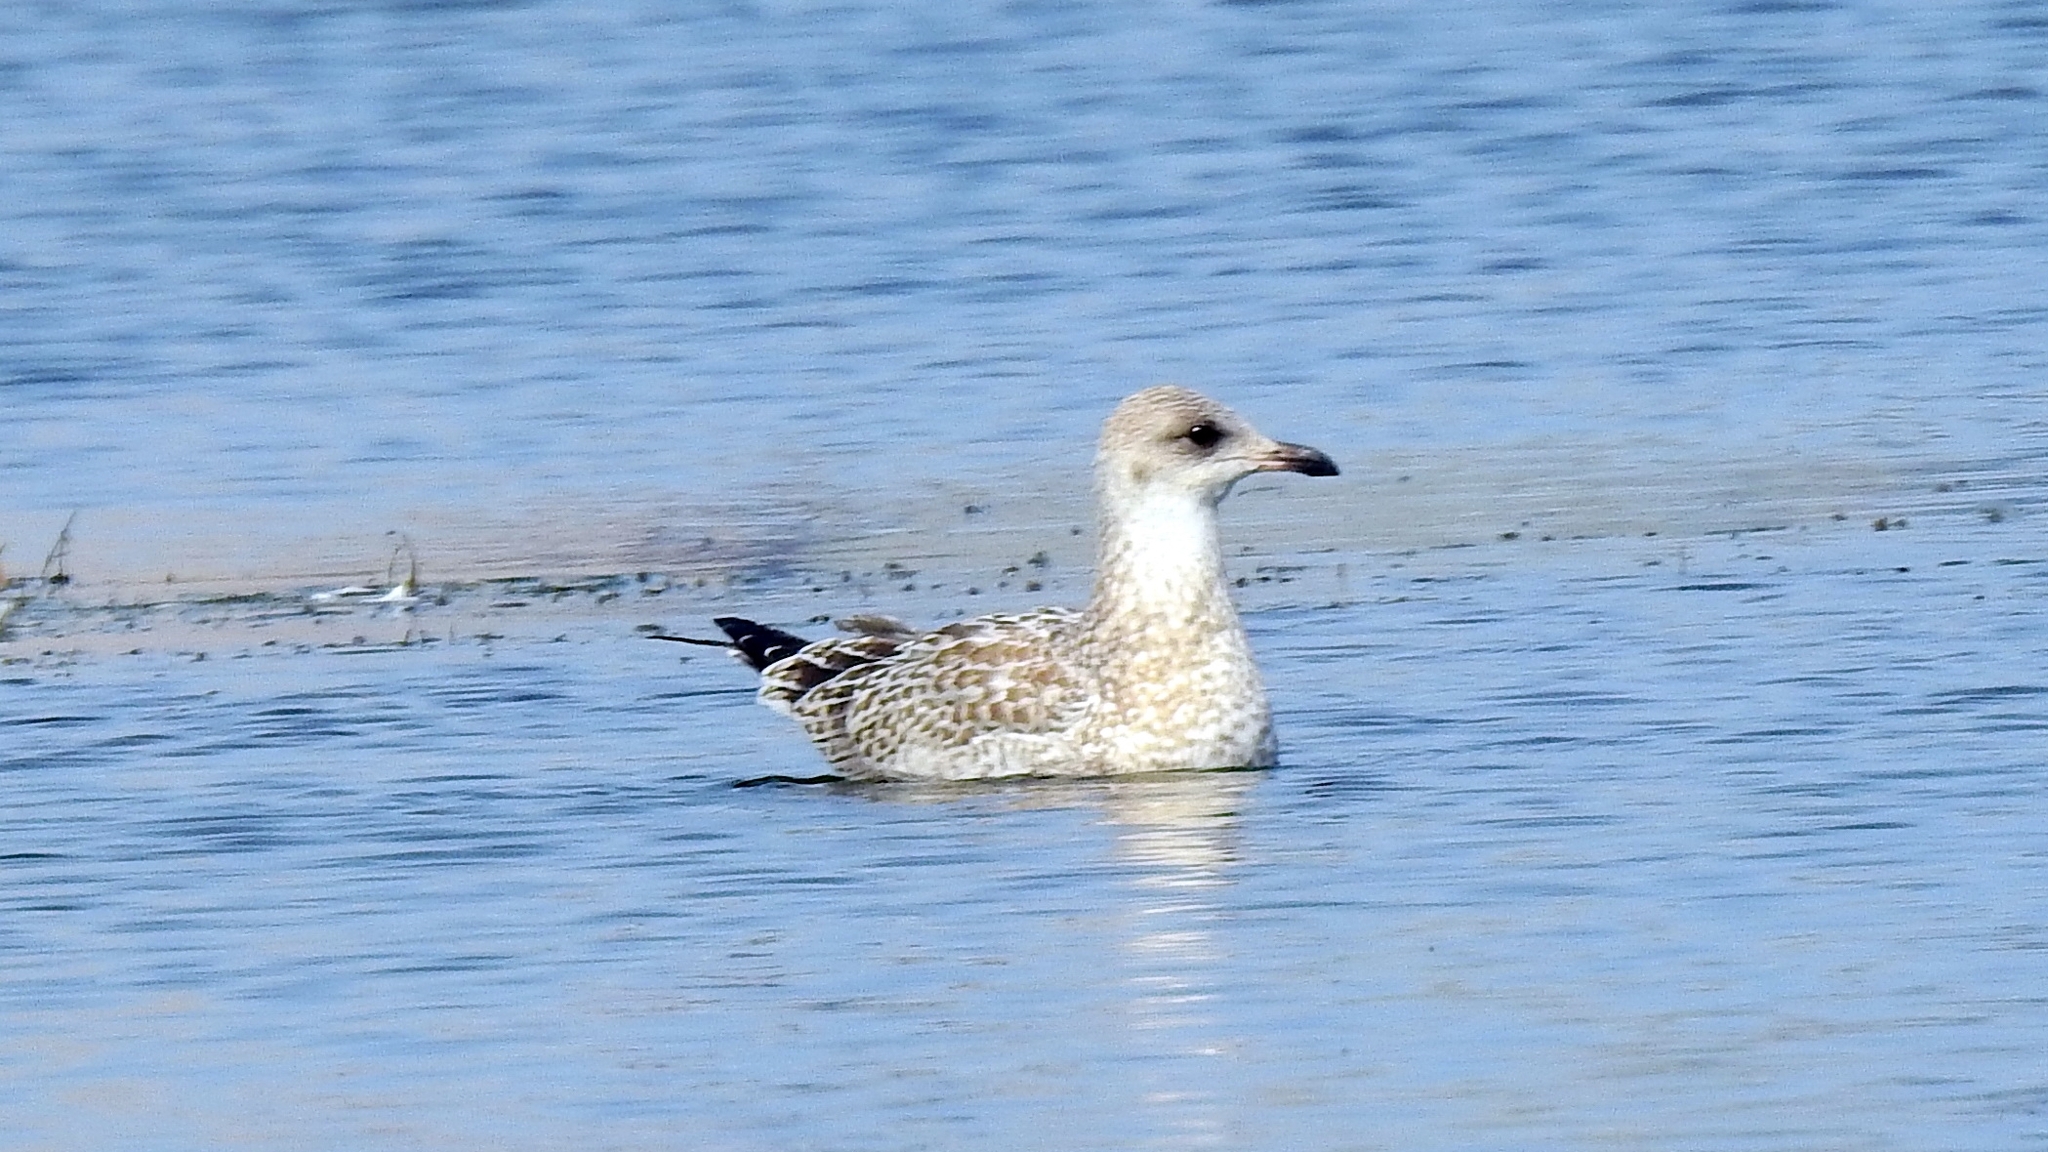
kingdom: Animalia
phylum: Chordata
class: Aves
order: Charadriiformes
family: Laridae
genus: Larus
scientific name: Larus delawarensis
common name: Ring-billed gull
